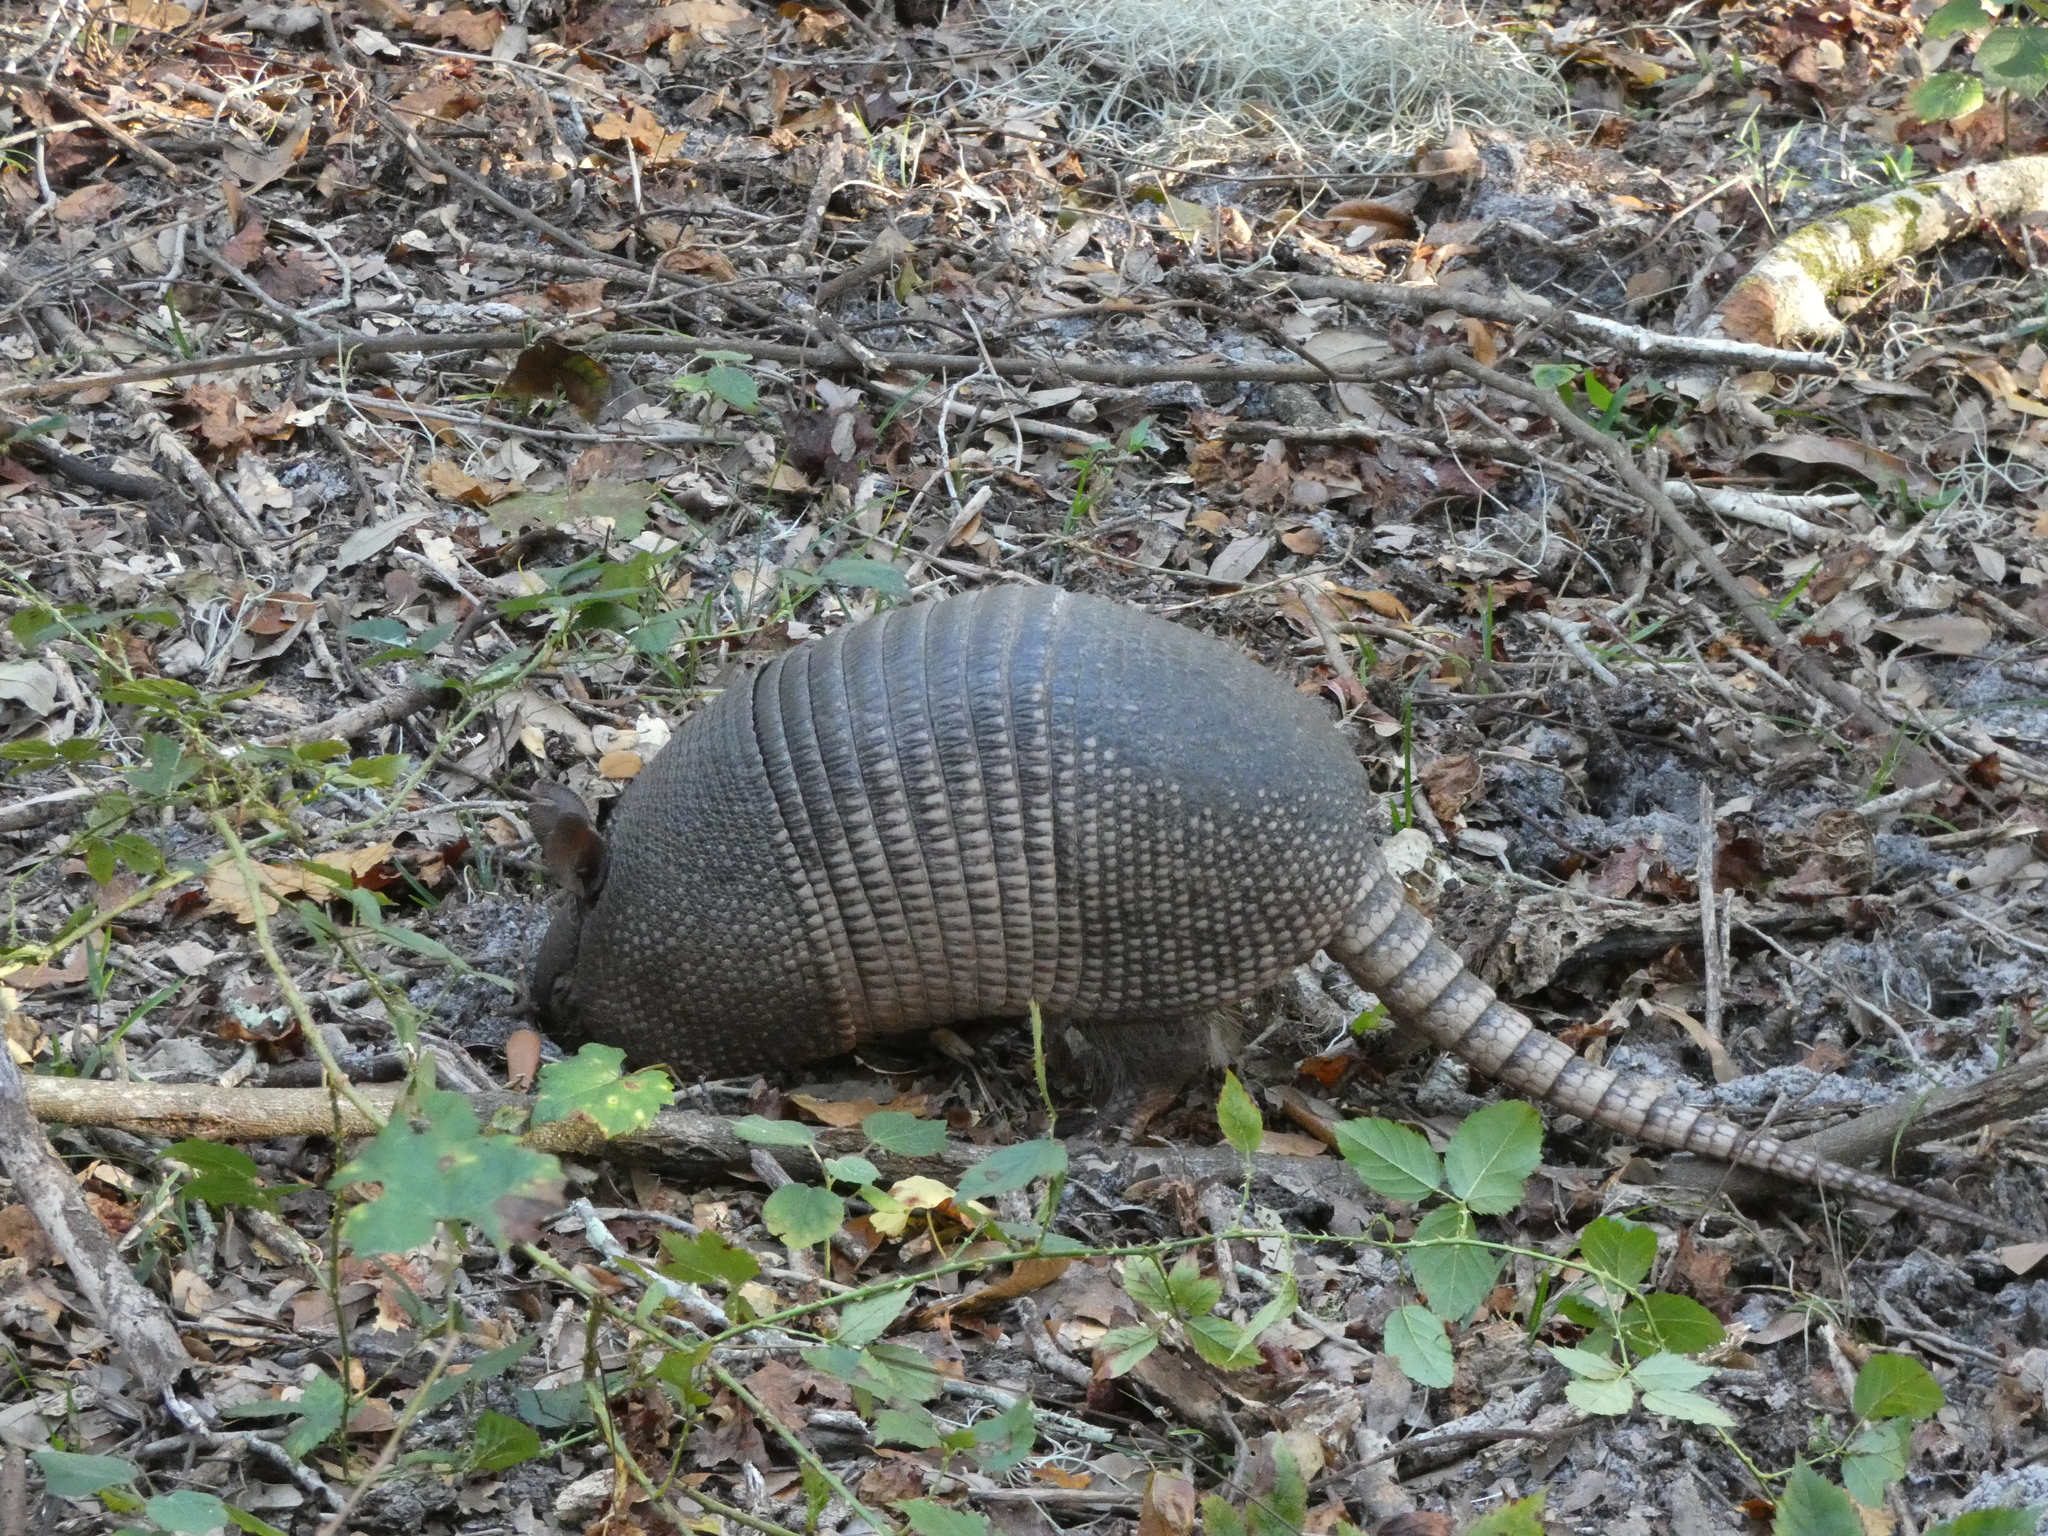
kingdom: Animalia
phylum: Chordata
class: Mammalia
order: Cingulata
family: Dasypodidae
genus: Dasypus
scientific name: Dasypus novemcinctus
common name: Nine-banded armadillo
